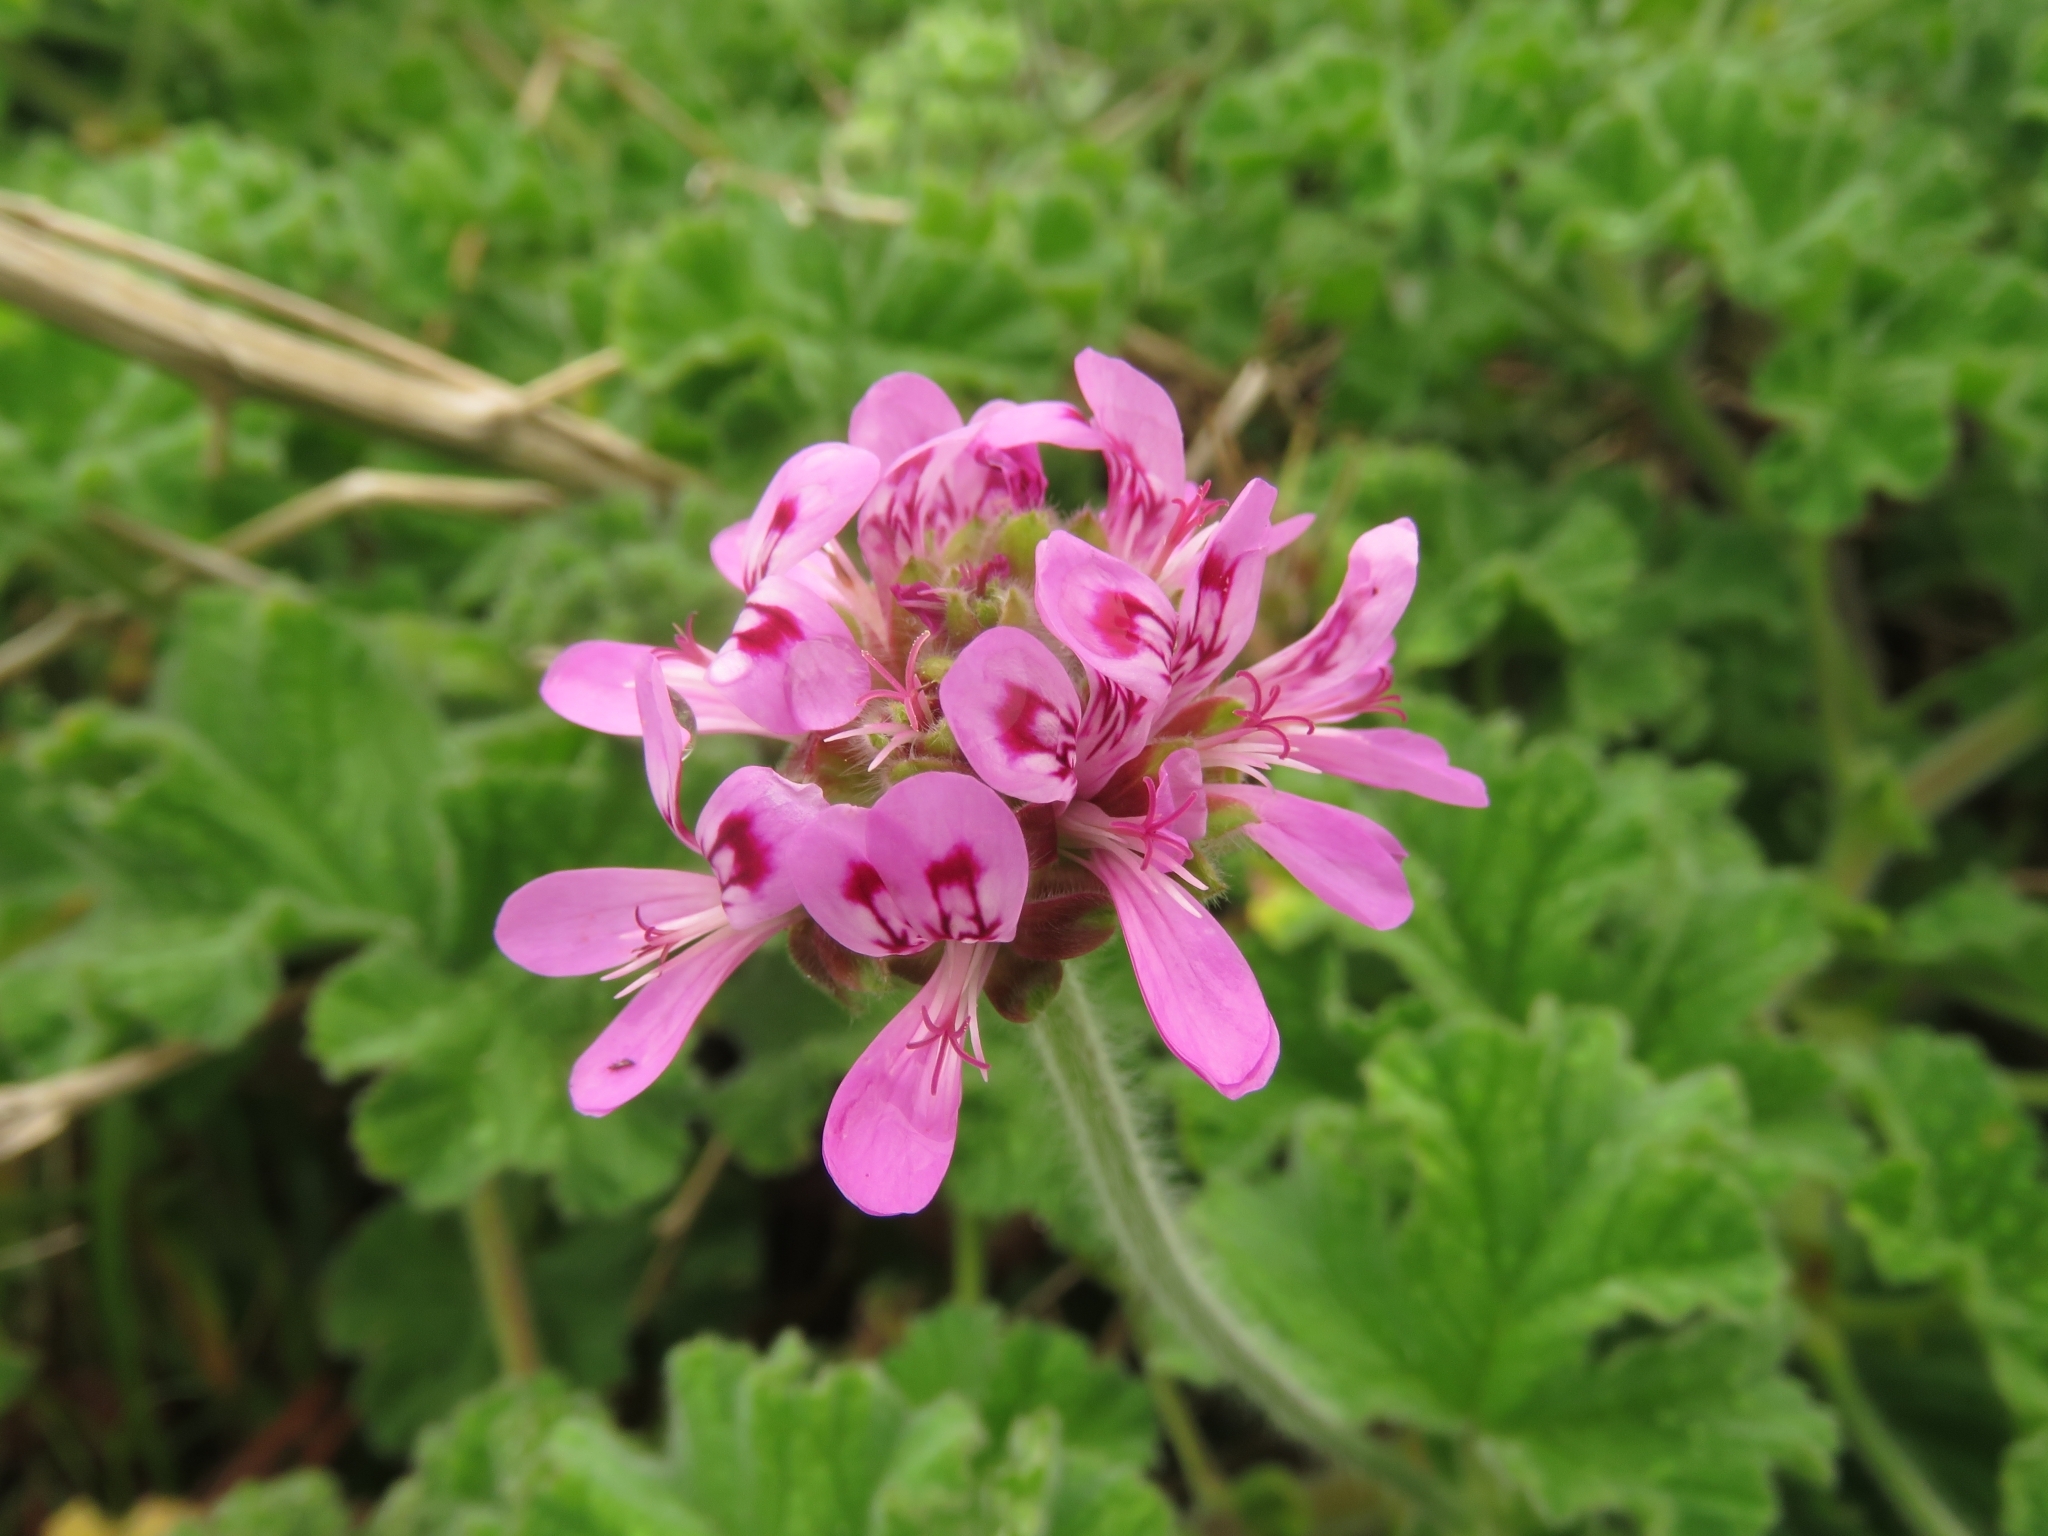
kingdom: Plantae
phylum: Tracheophyta
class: Magnoliopsida
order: Geraniales
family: Geraniaceae
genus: Pelargonium
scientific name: Pelargonium capitatum
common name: Rose scented geranium
